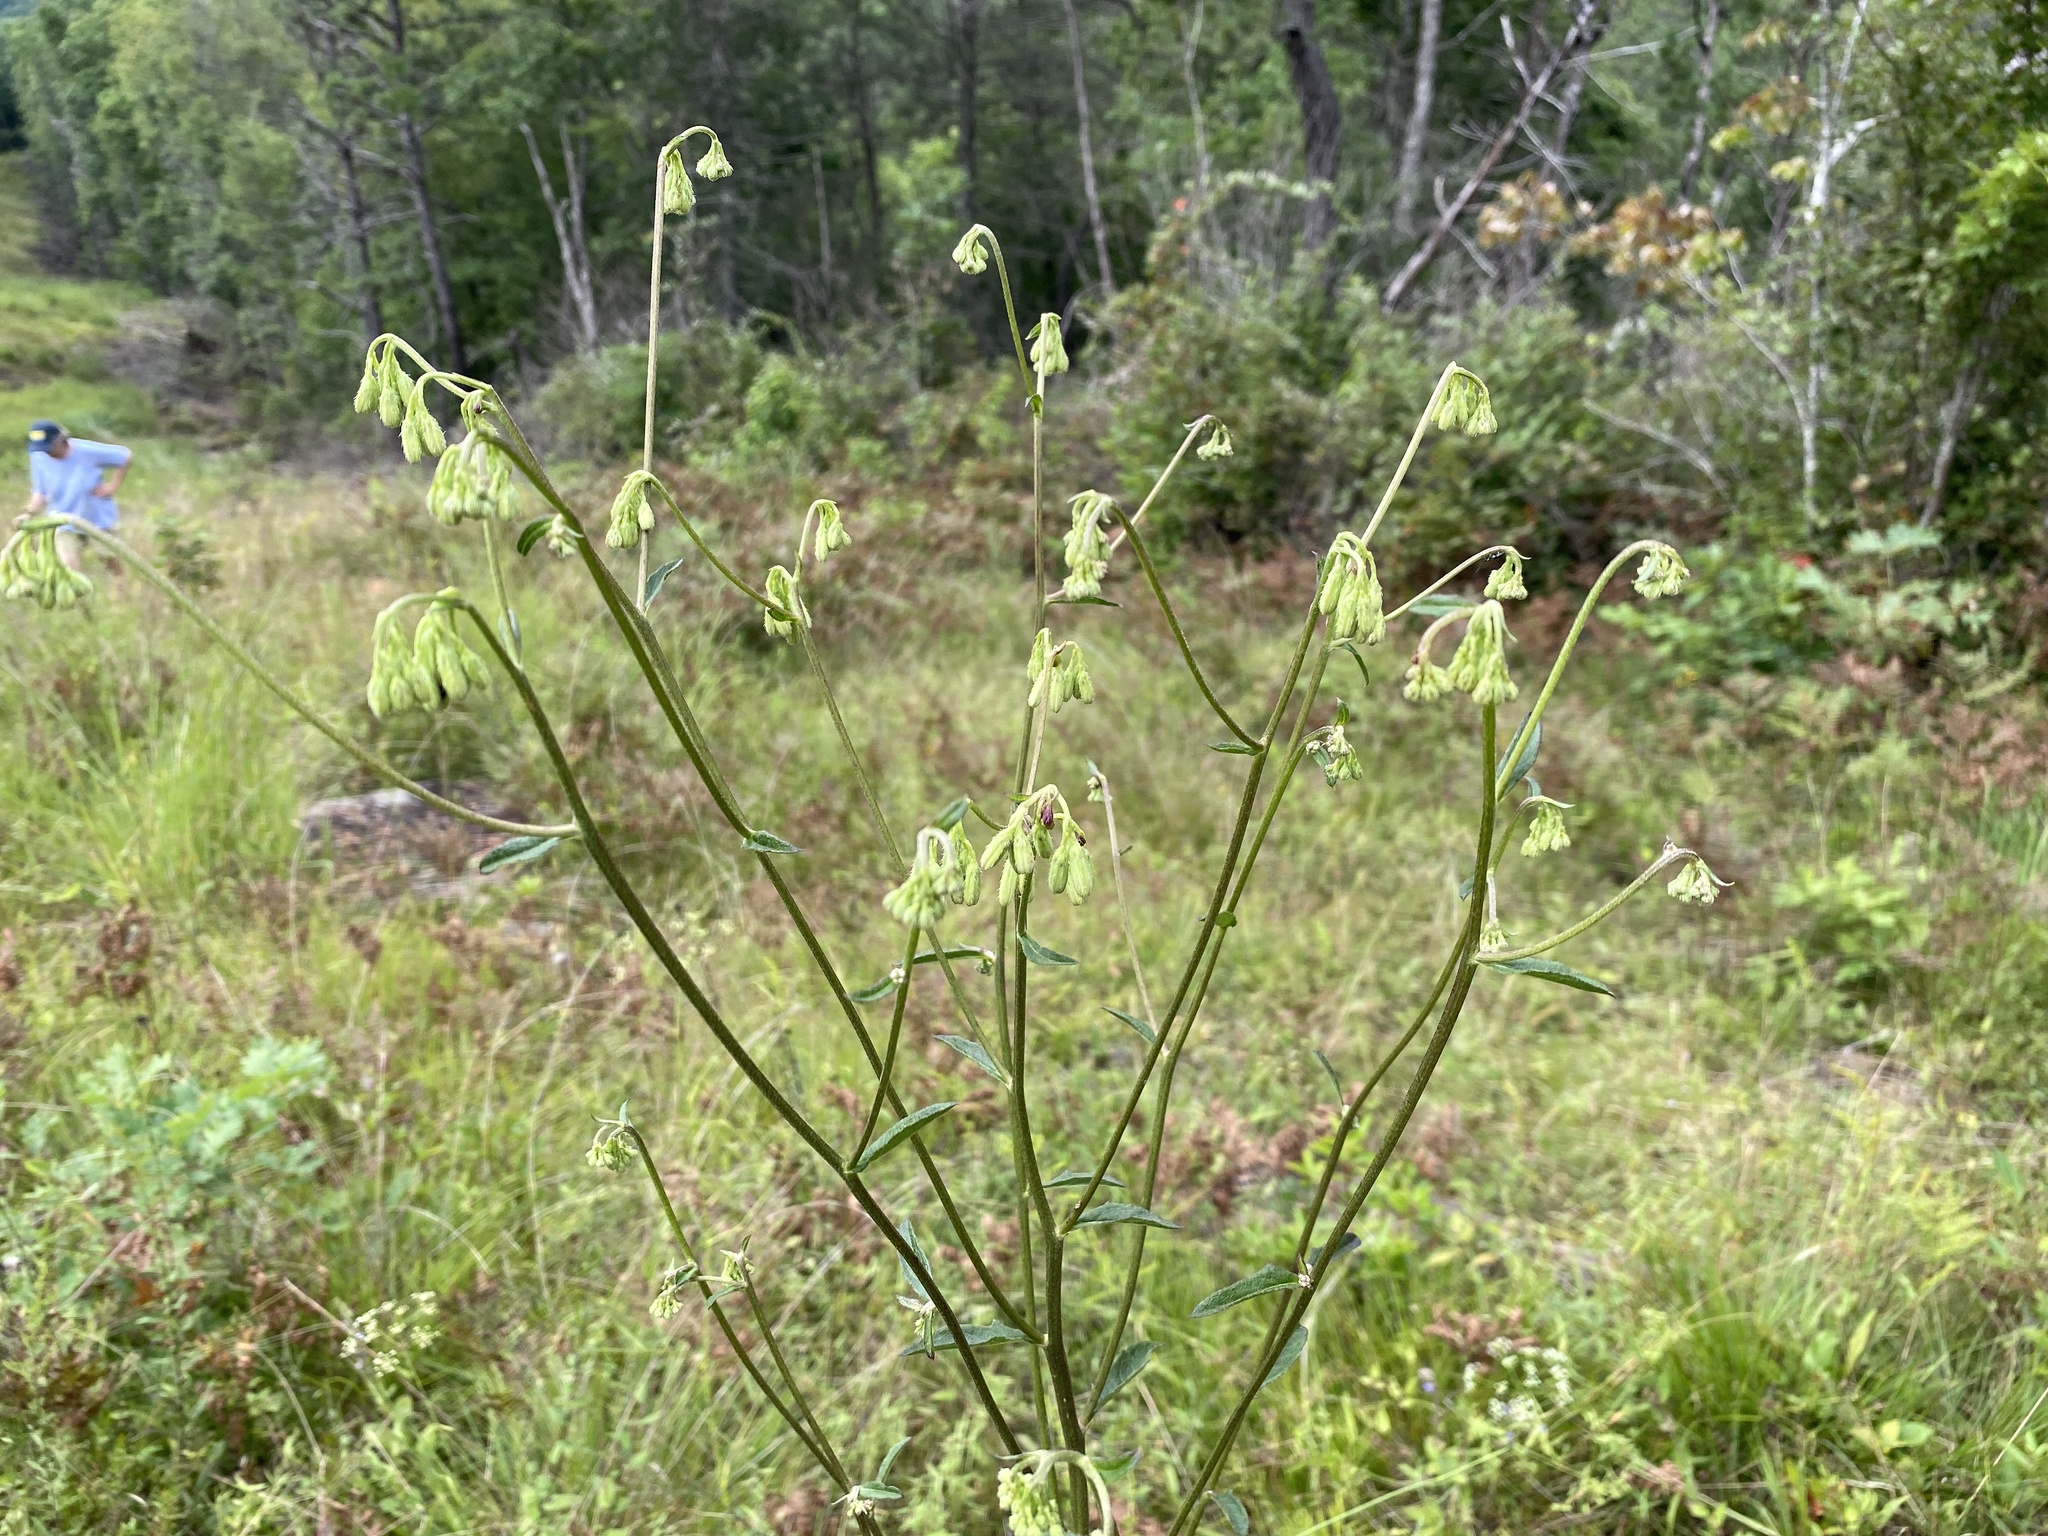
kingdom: Plantae
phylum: Tracheophyta
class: Magnoliopsida
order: Asterales
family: Asteraceae
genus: Nabalus
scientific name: Nabalus serpentarius
